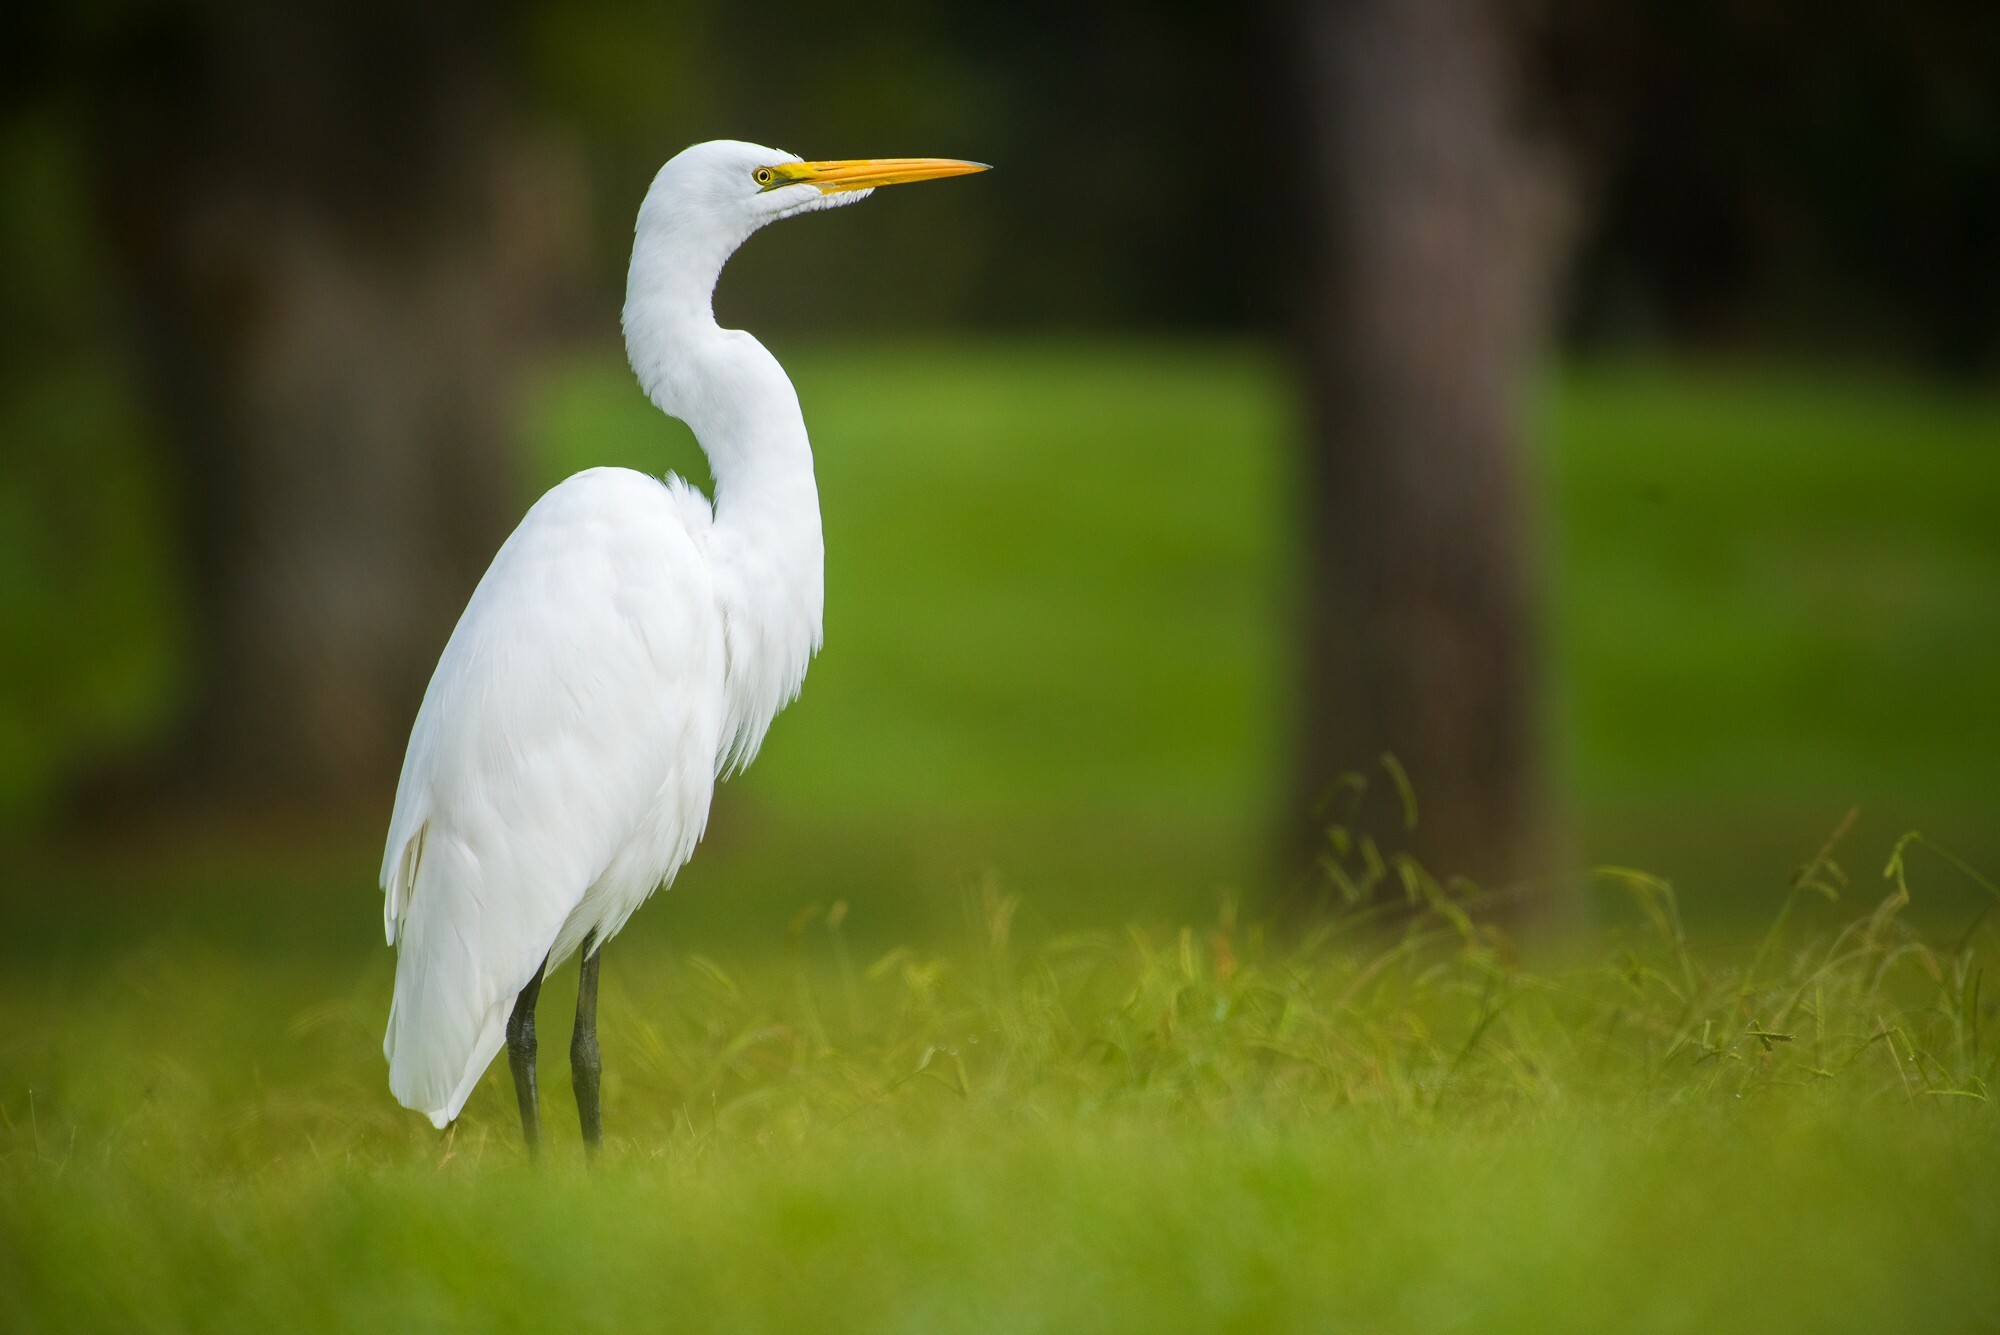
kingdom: Animalia
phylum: Chordata
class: Aves
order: Pelecaniformes
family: Ardeidae
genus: Ardea
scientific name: Ardea alba
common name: Great egret
